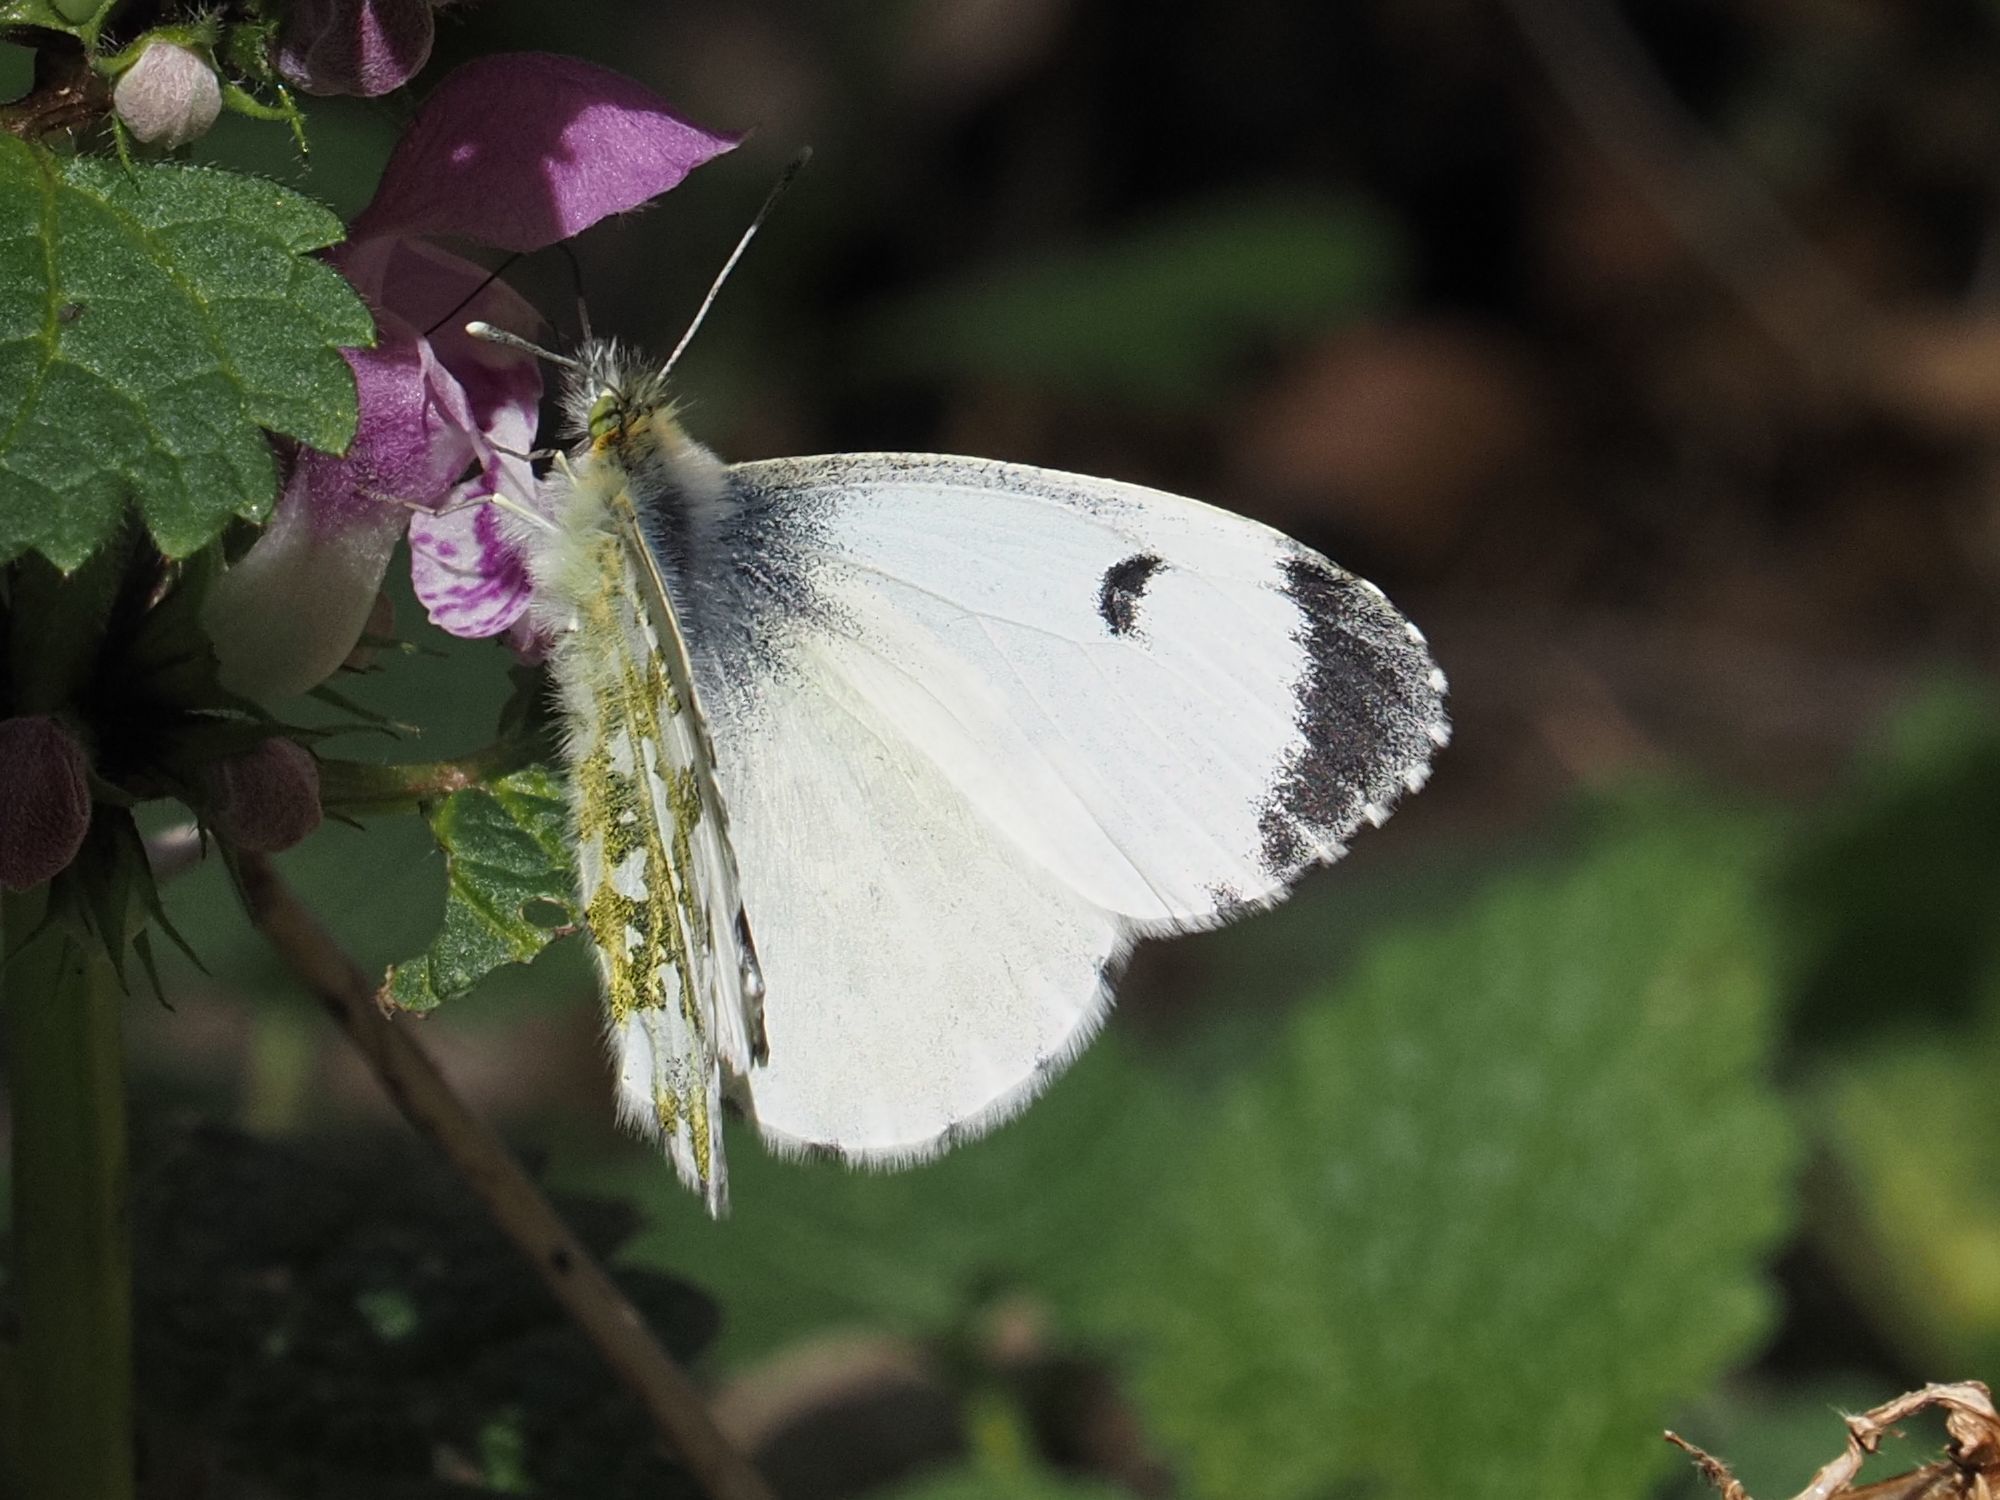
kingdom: Animalia
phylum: Arthropoda
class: Insecta
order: Lepidoptera
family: Pieridae
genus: Anthocharis
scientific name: Anthocharis cardamines
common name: Orange-tip
